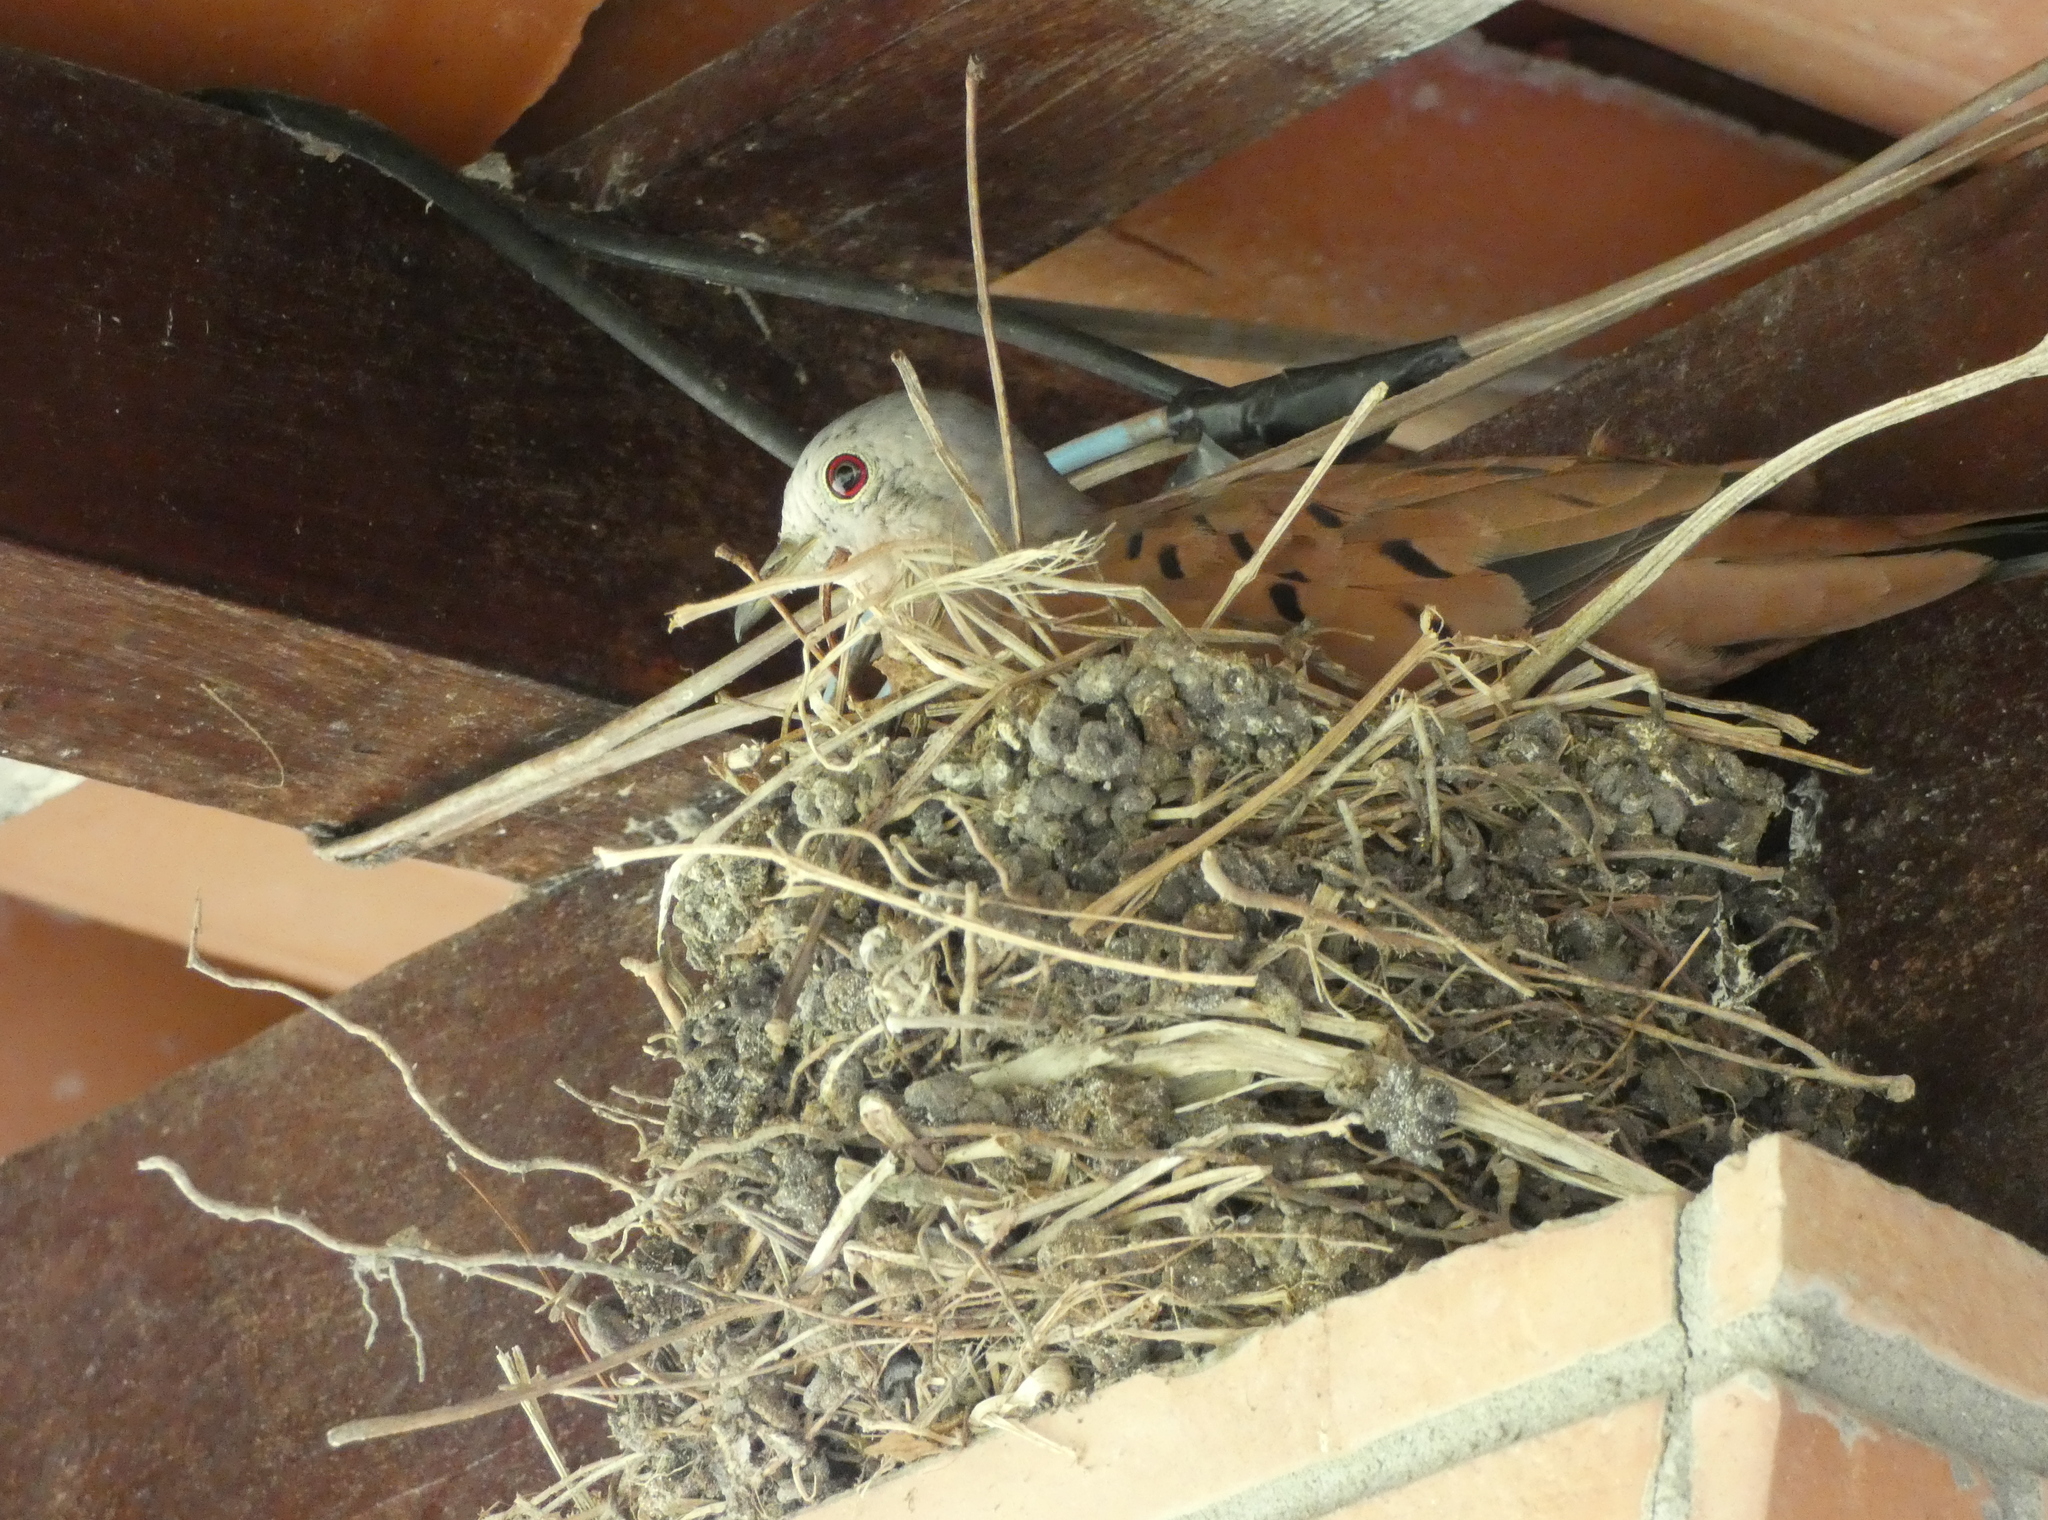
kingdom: Animalia
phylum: Chordata
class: Aves
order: Columbiformes
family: Columbidae
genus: Columbina
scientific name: Columbina talpacoti
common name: Ruddy ground dove
